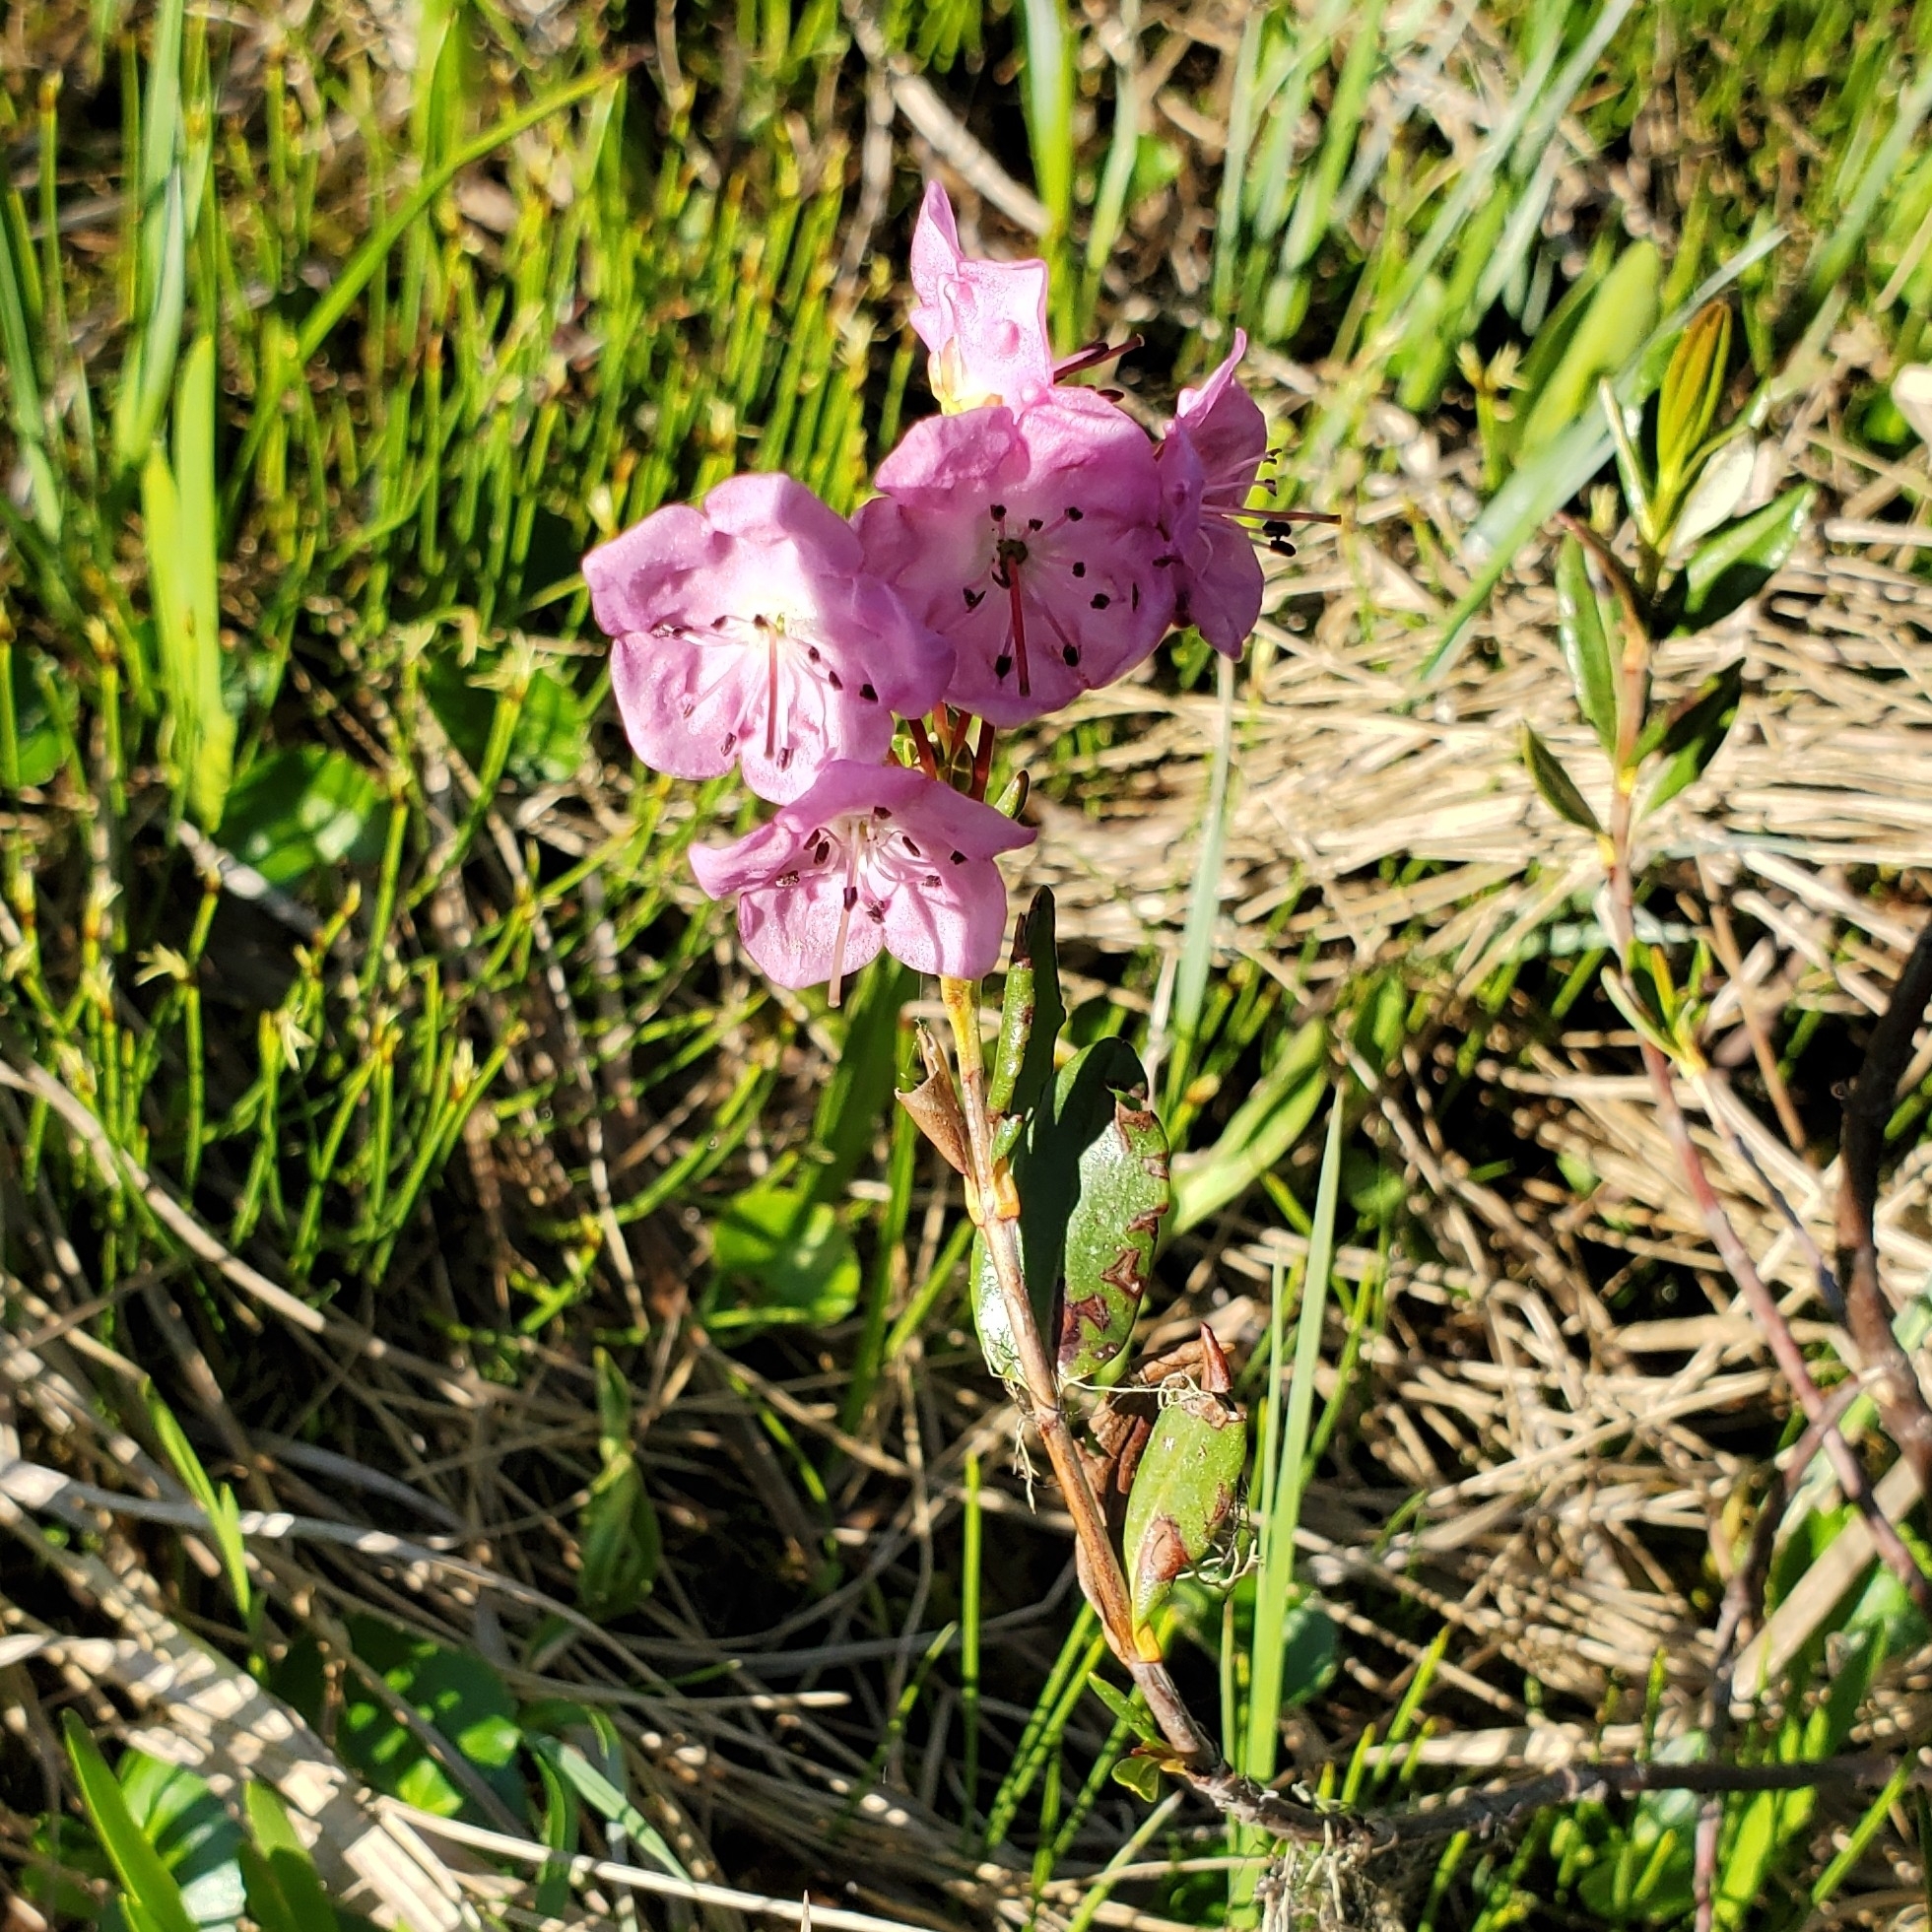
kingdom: Plantae
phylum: Tracheophyta
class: Magnoliopsida
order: Ericales
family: Ericaceae
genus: Kalmia
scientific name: Kalmia microphylla
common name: Alpine bog laurel
